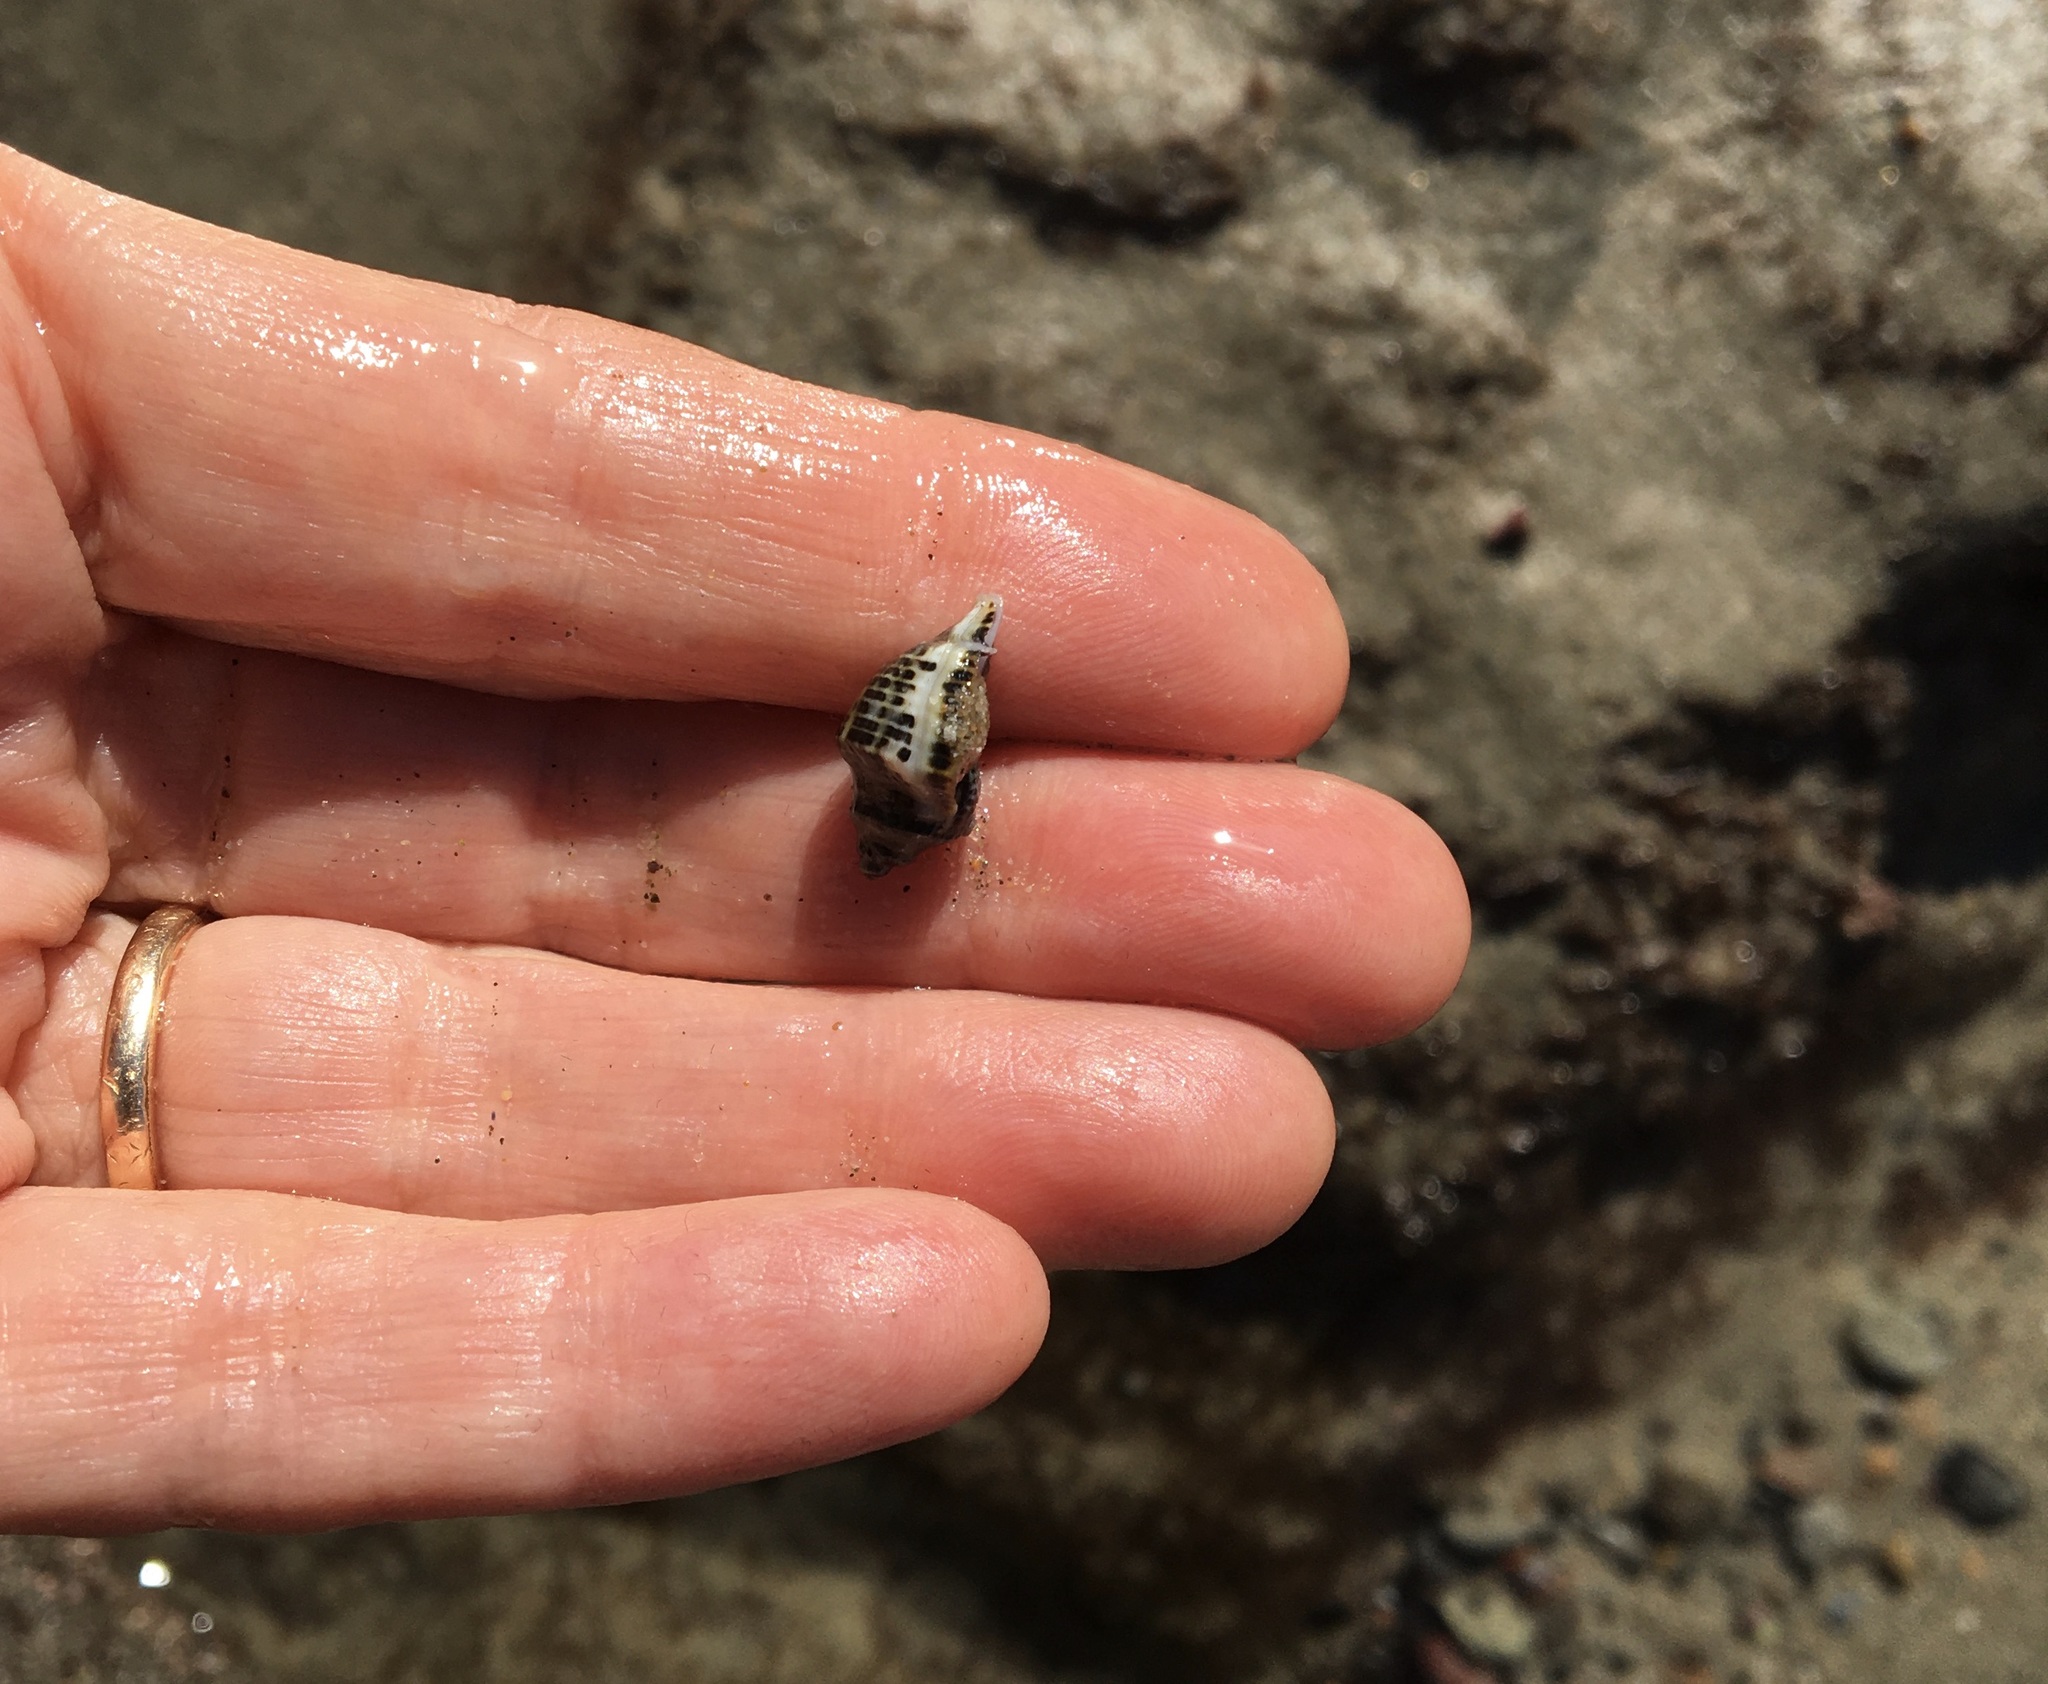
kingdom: Animalia
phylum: Mollusca
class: Gastropoda
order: Neogastropoda
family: Muricidae
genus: Acanthinucella
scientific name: Acanthinucella spirata
